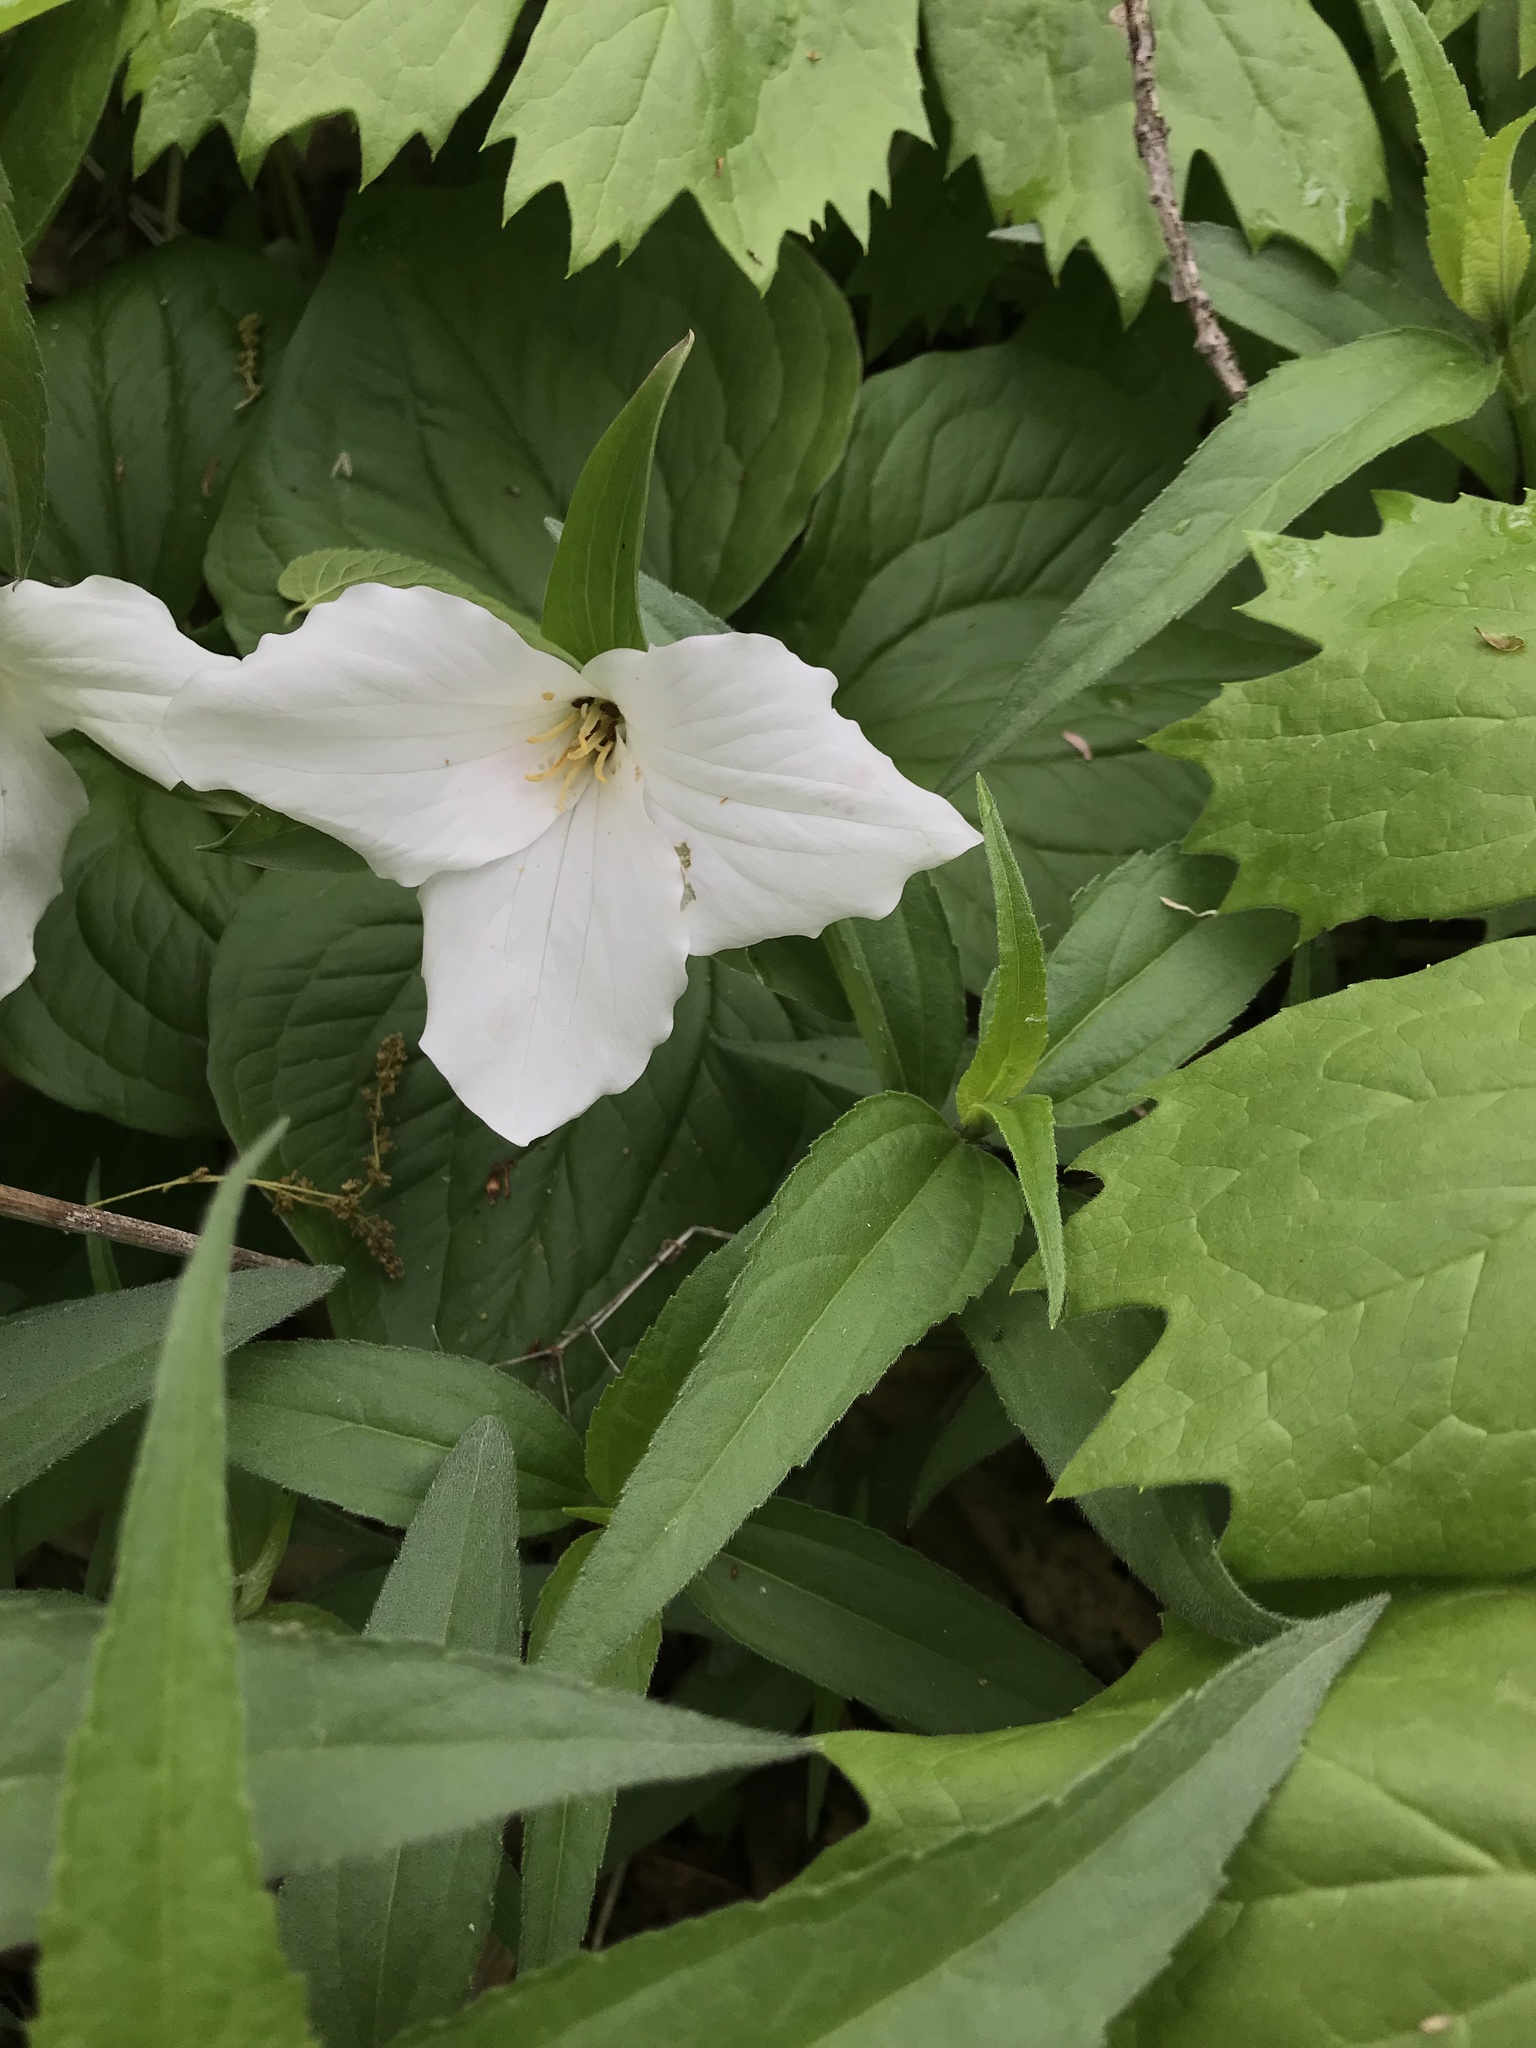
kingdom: Plantae
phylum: Tracheophyta
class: Liliopsida
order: Liliales
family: Melanthiaceae
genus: Trillium
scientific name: Trillium grandiflorum
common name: Great white trillium
